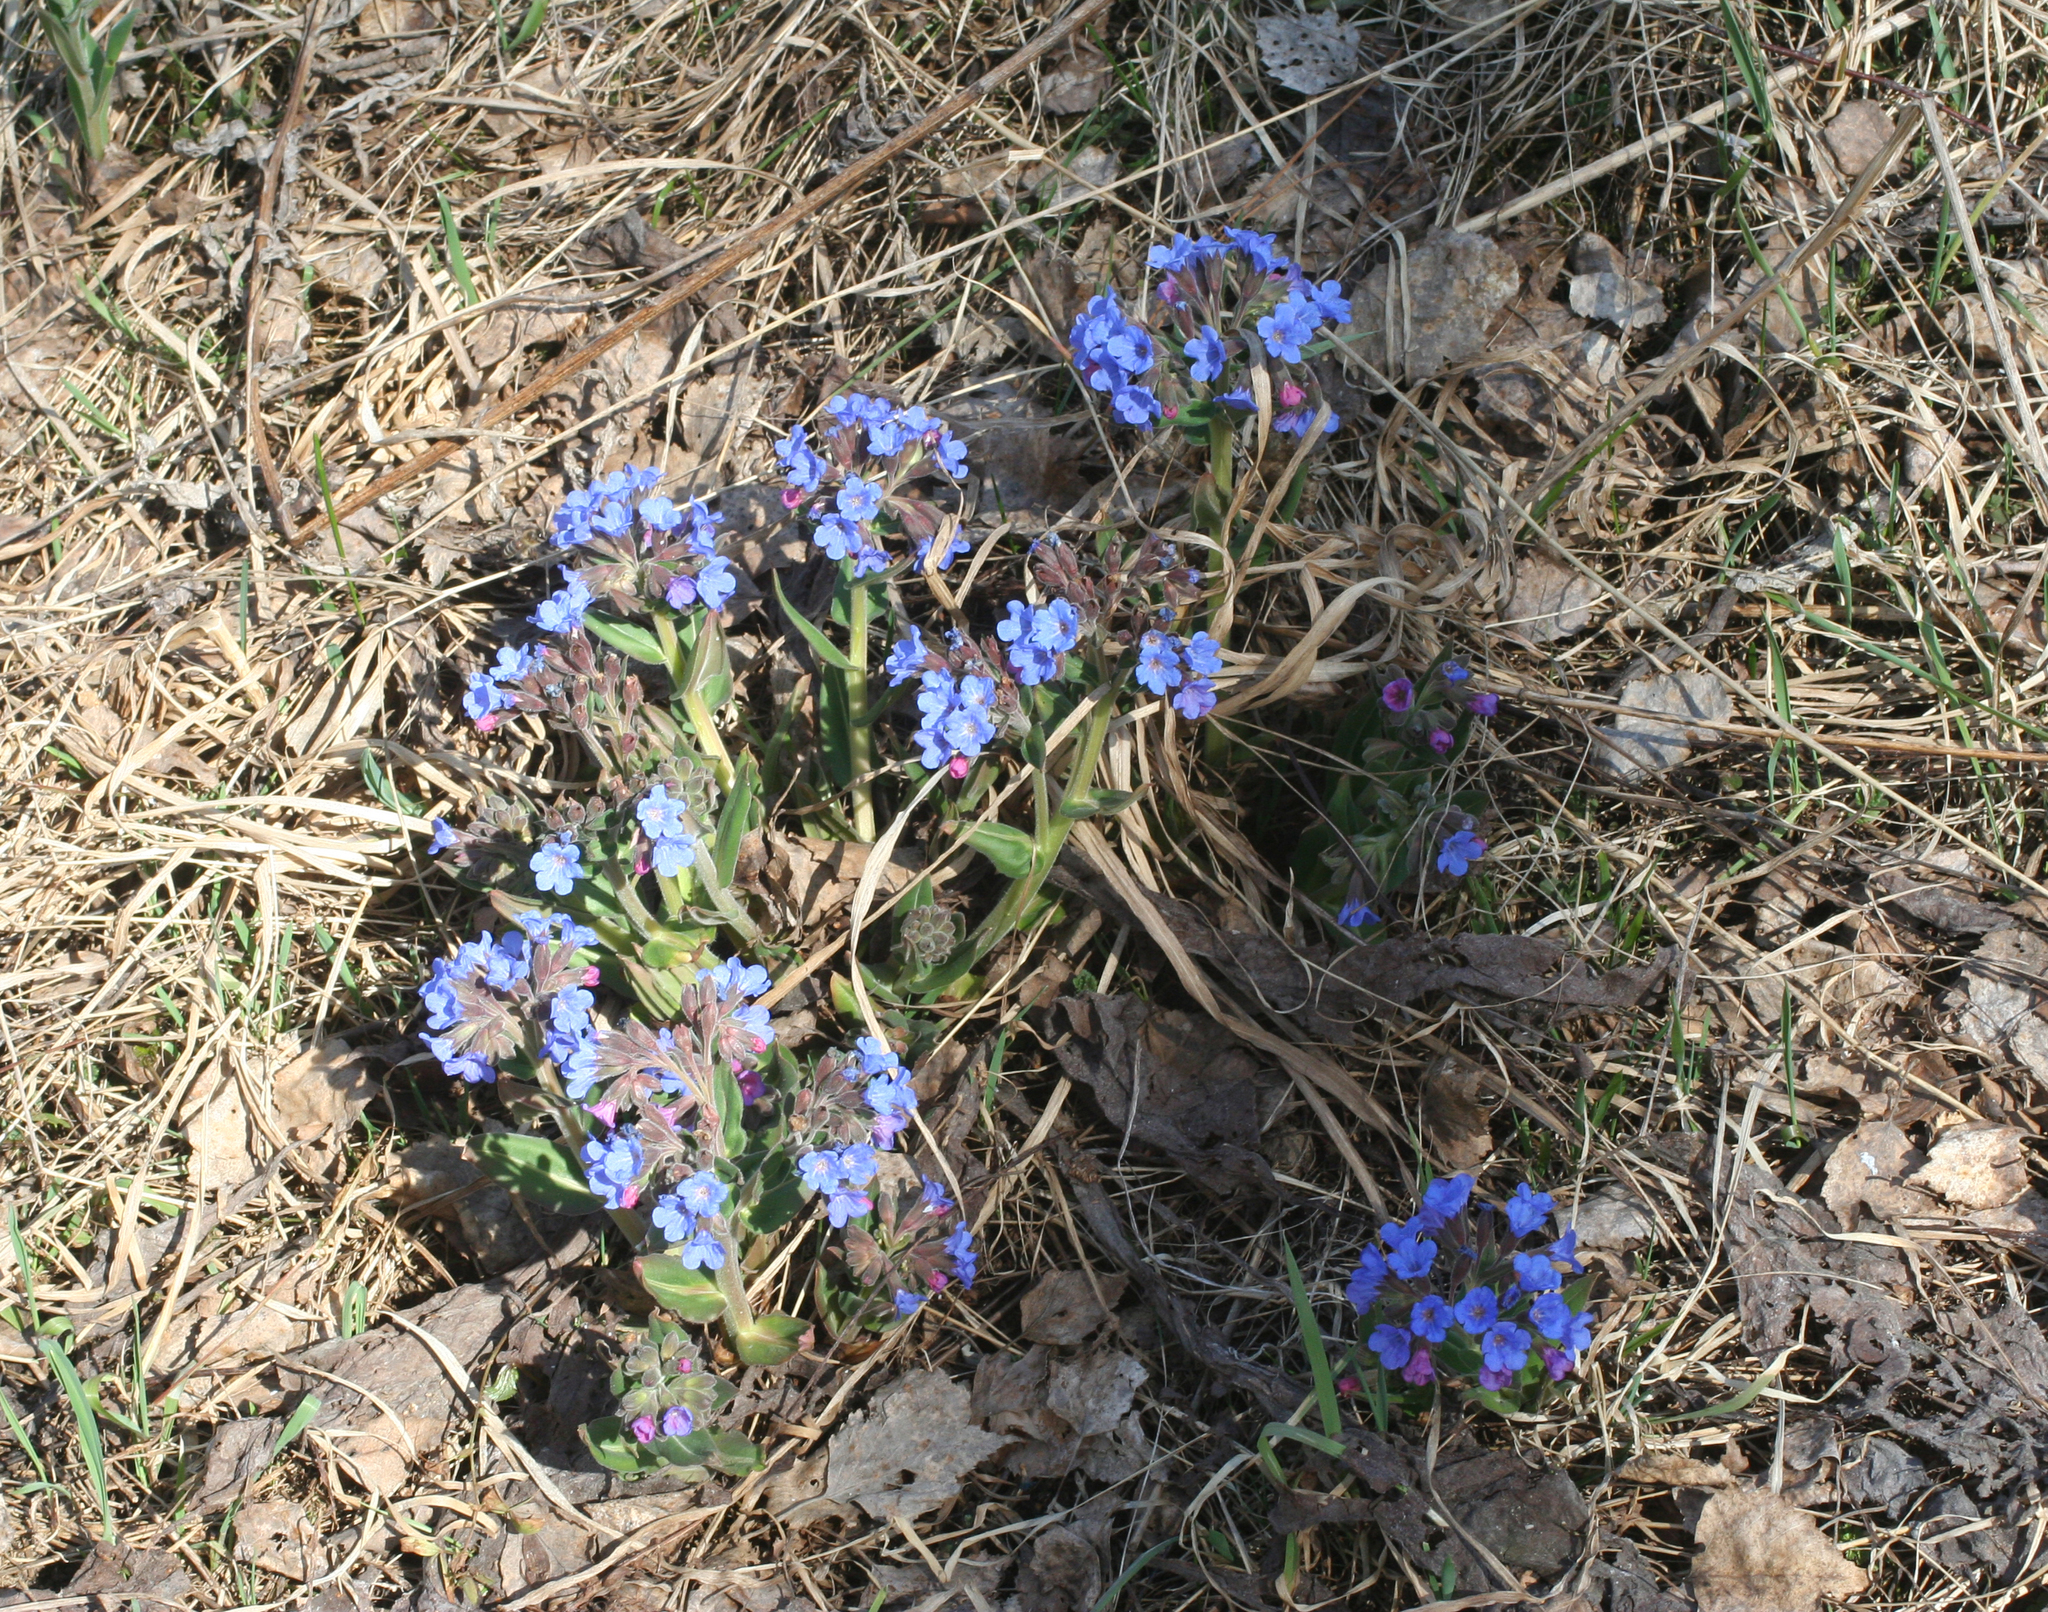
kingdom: Plantae
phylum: Tracheophyta
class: Magnoliopsida
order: Boraginales
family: Boraginaceae
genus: Pulmonaria
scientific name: Pulmonaria mollis
